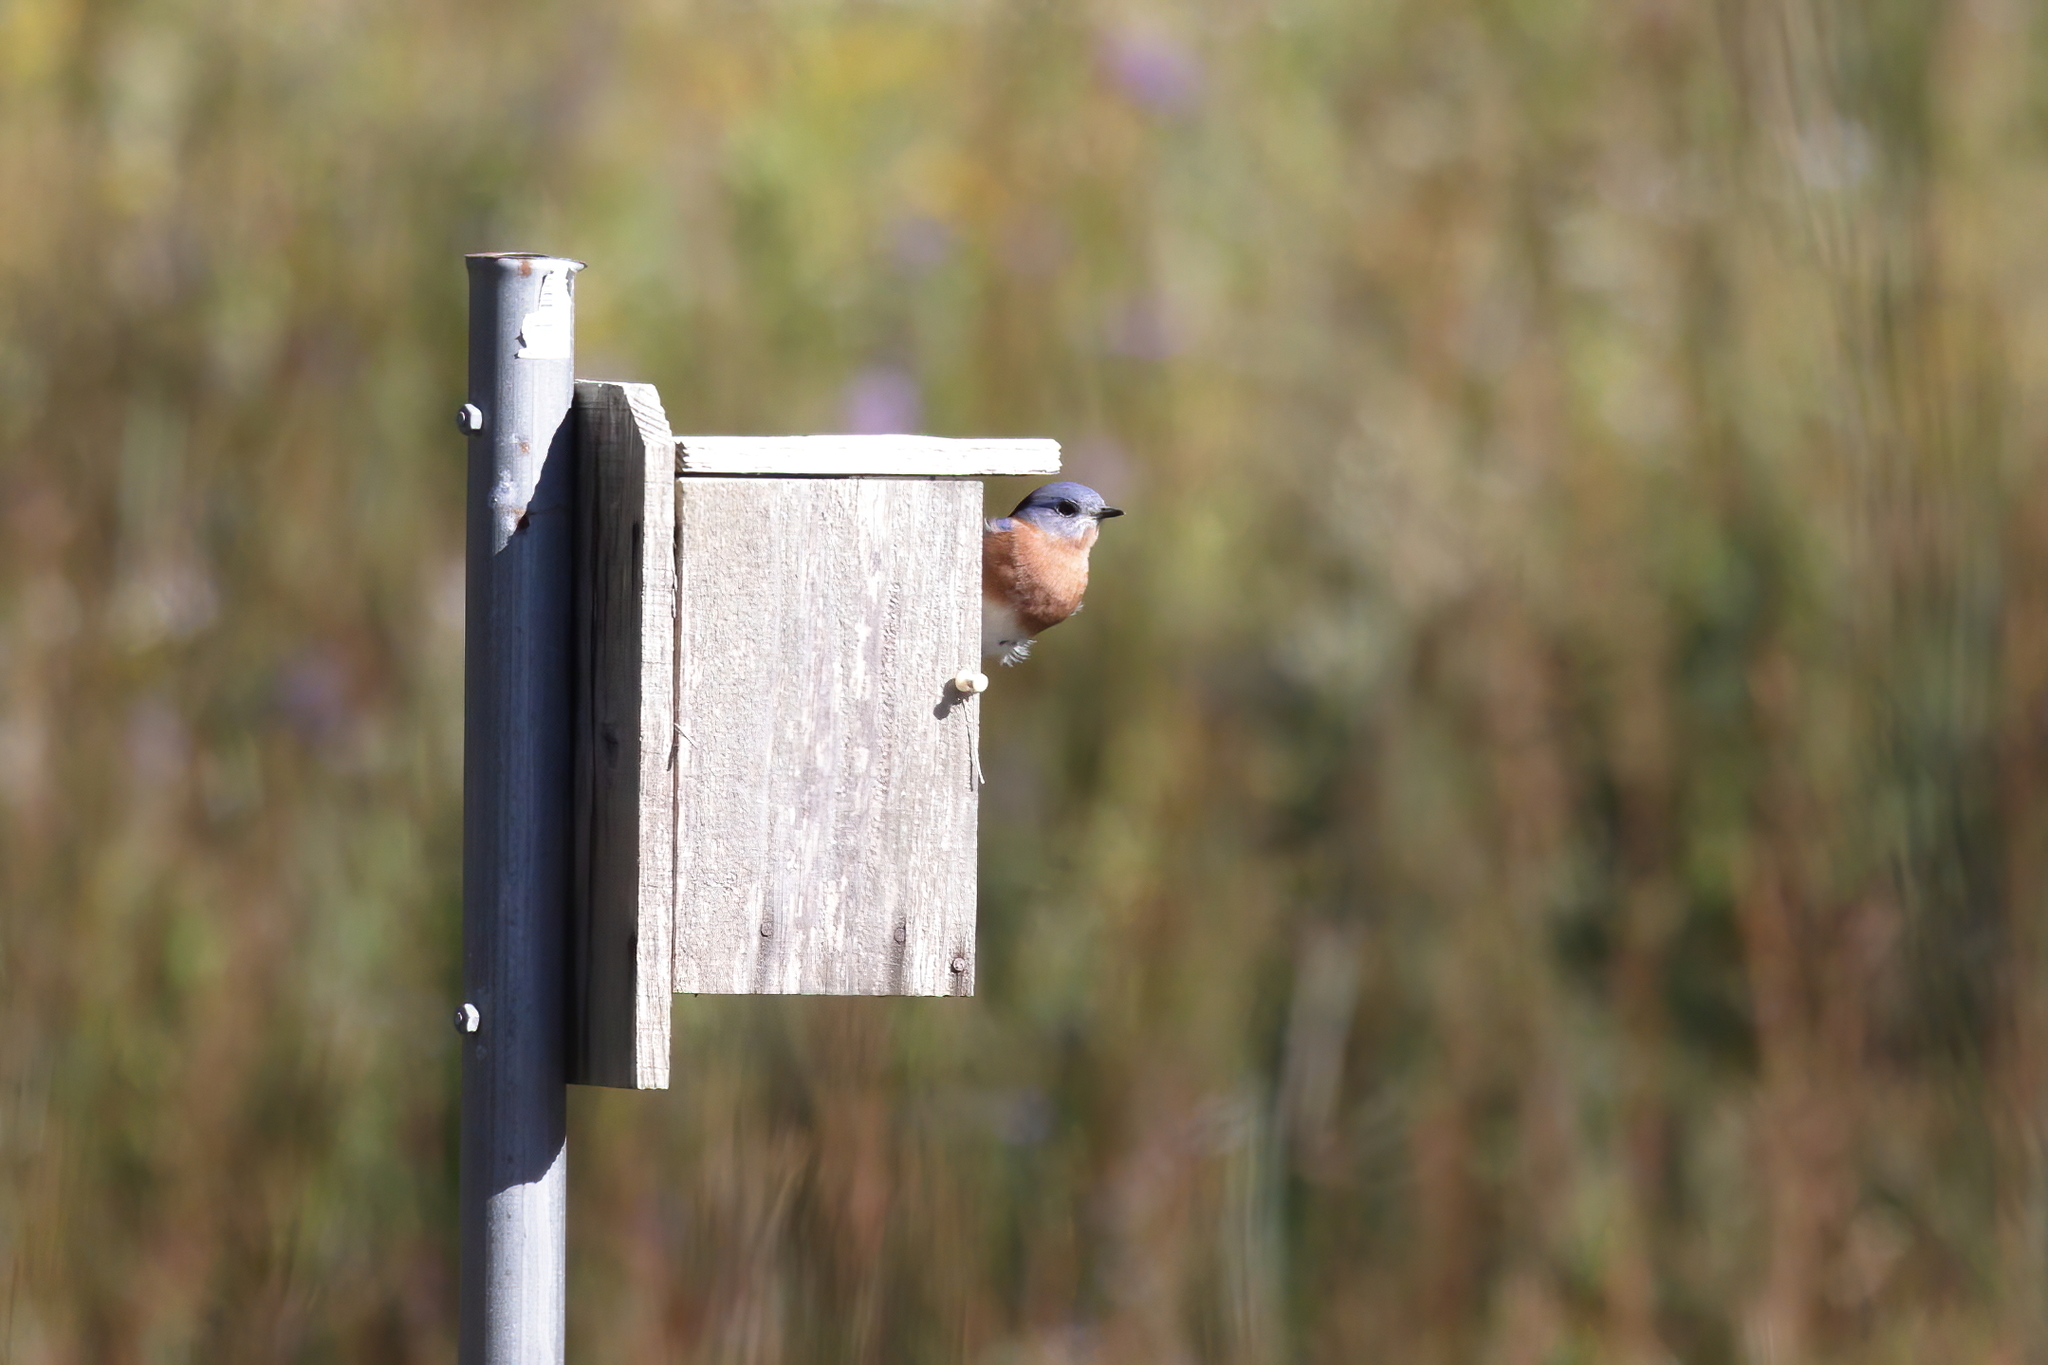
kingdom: Animalia
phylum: Chordata
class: Aves
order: Passeriformes
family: Turdidae
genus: Sialia
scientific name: Sialia sialis
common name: Eastern bluebird
